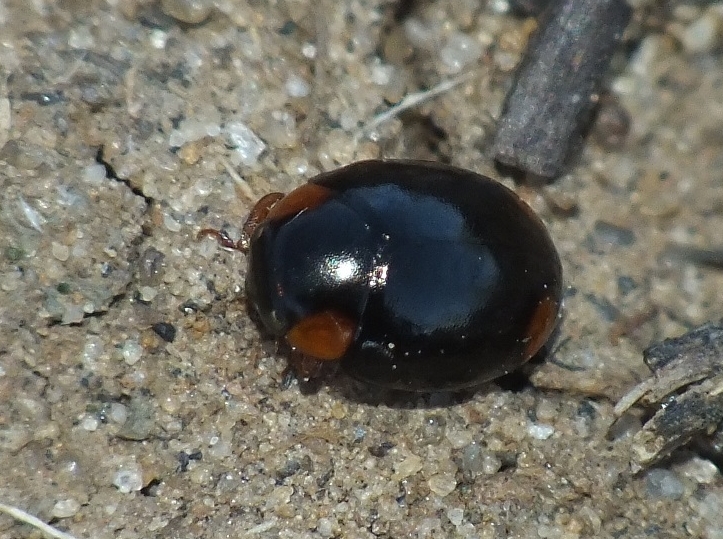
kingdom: Animalia
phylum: Arthropoda
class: Insecta
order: Coleoptera
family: Coccinellidae
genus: Hyperaspis
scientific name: Hyperaspis pseudopustulata
